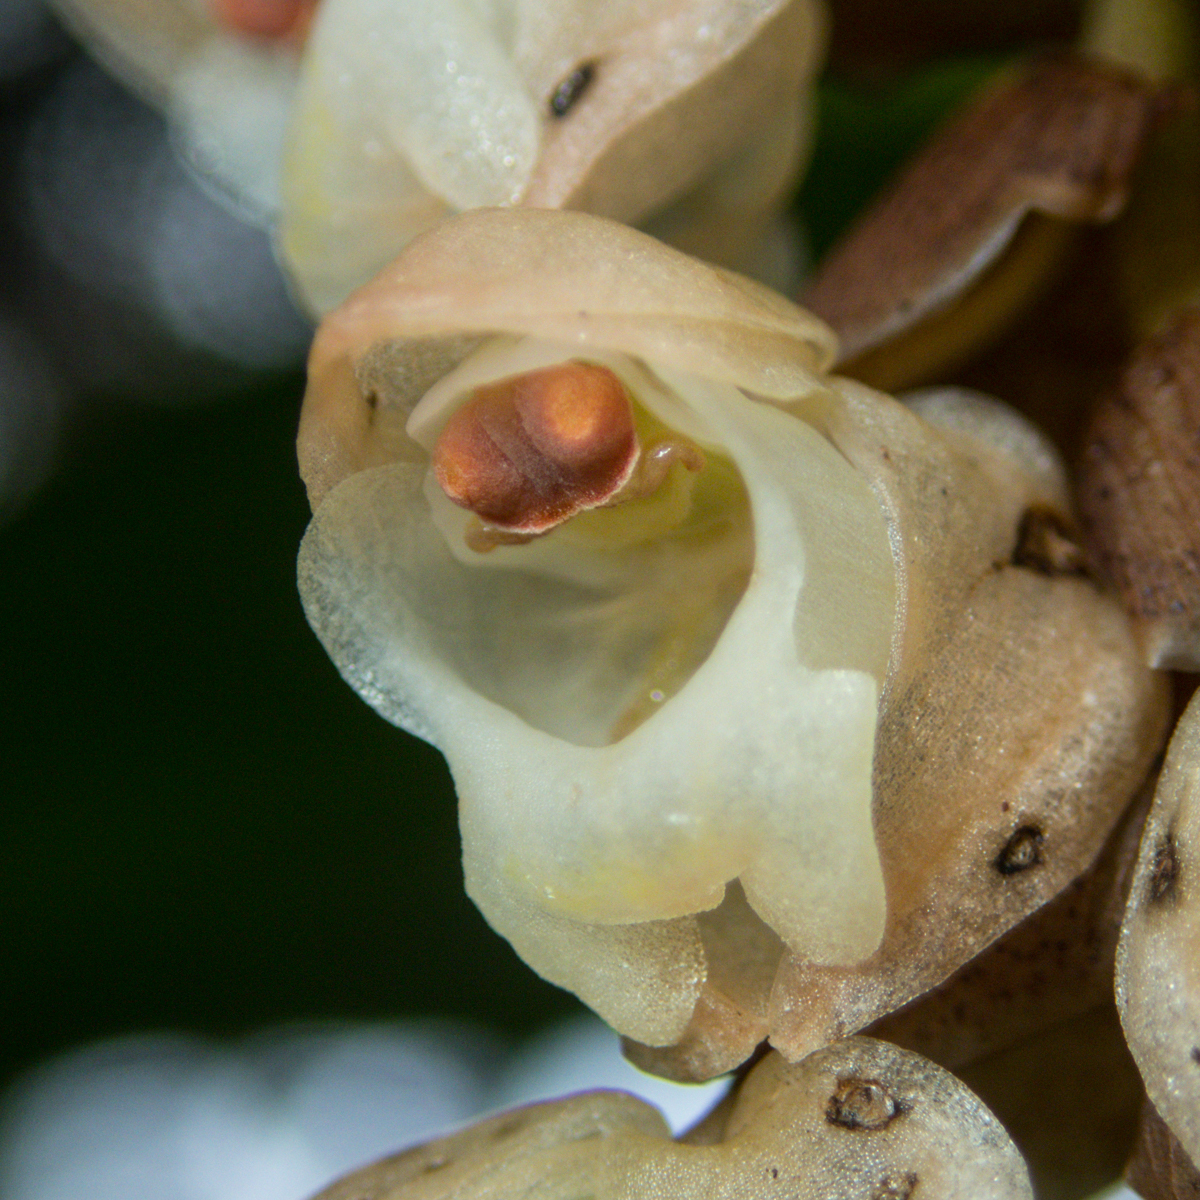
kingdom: Plantae
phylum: Tracheophyta
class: Liliopsida
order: Asparagales
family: Orchidaceae
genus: Pholidota
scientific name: Pholidota imbricata
